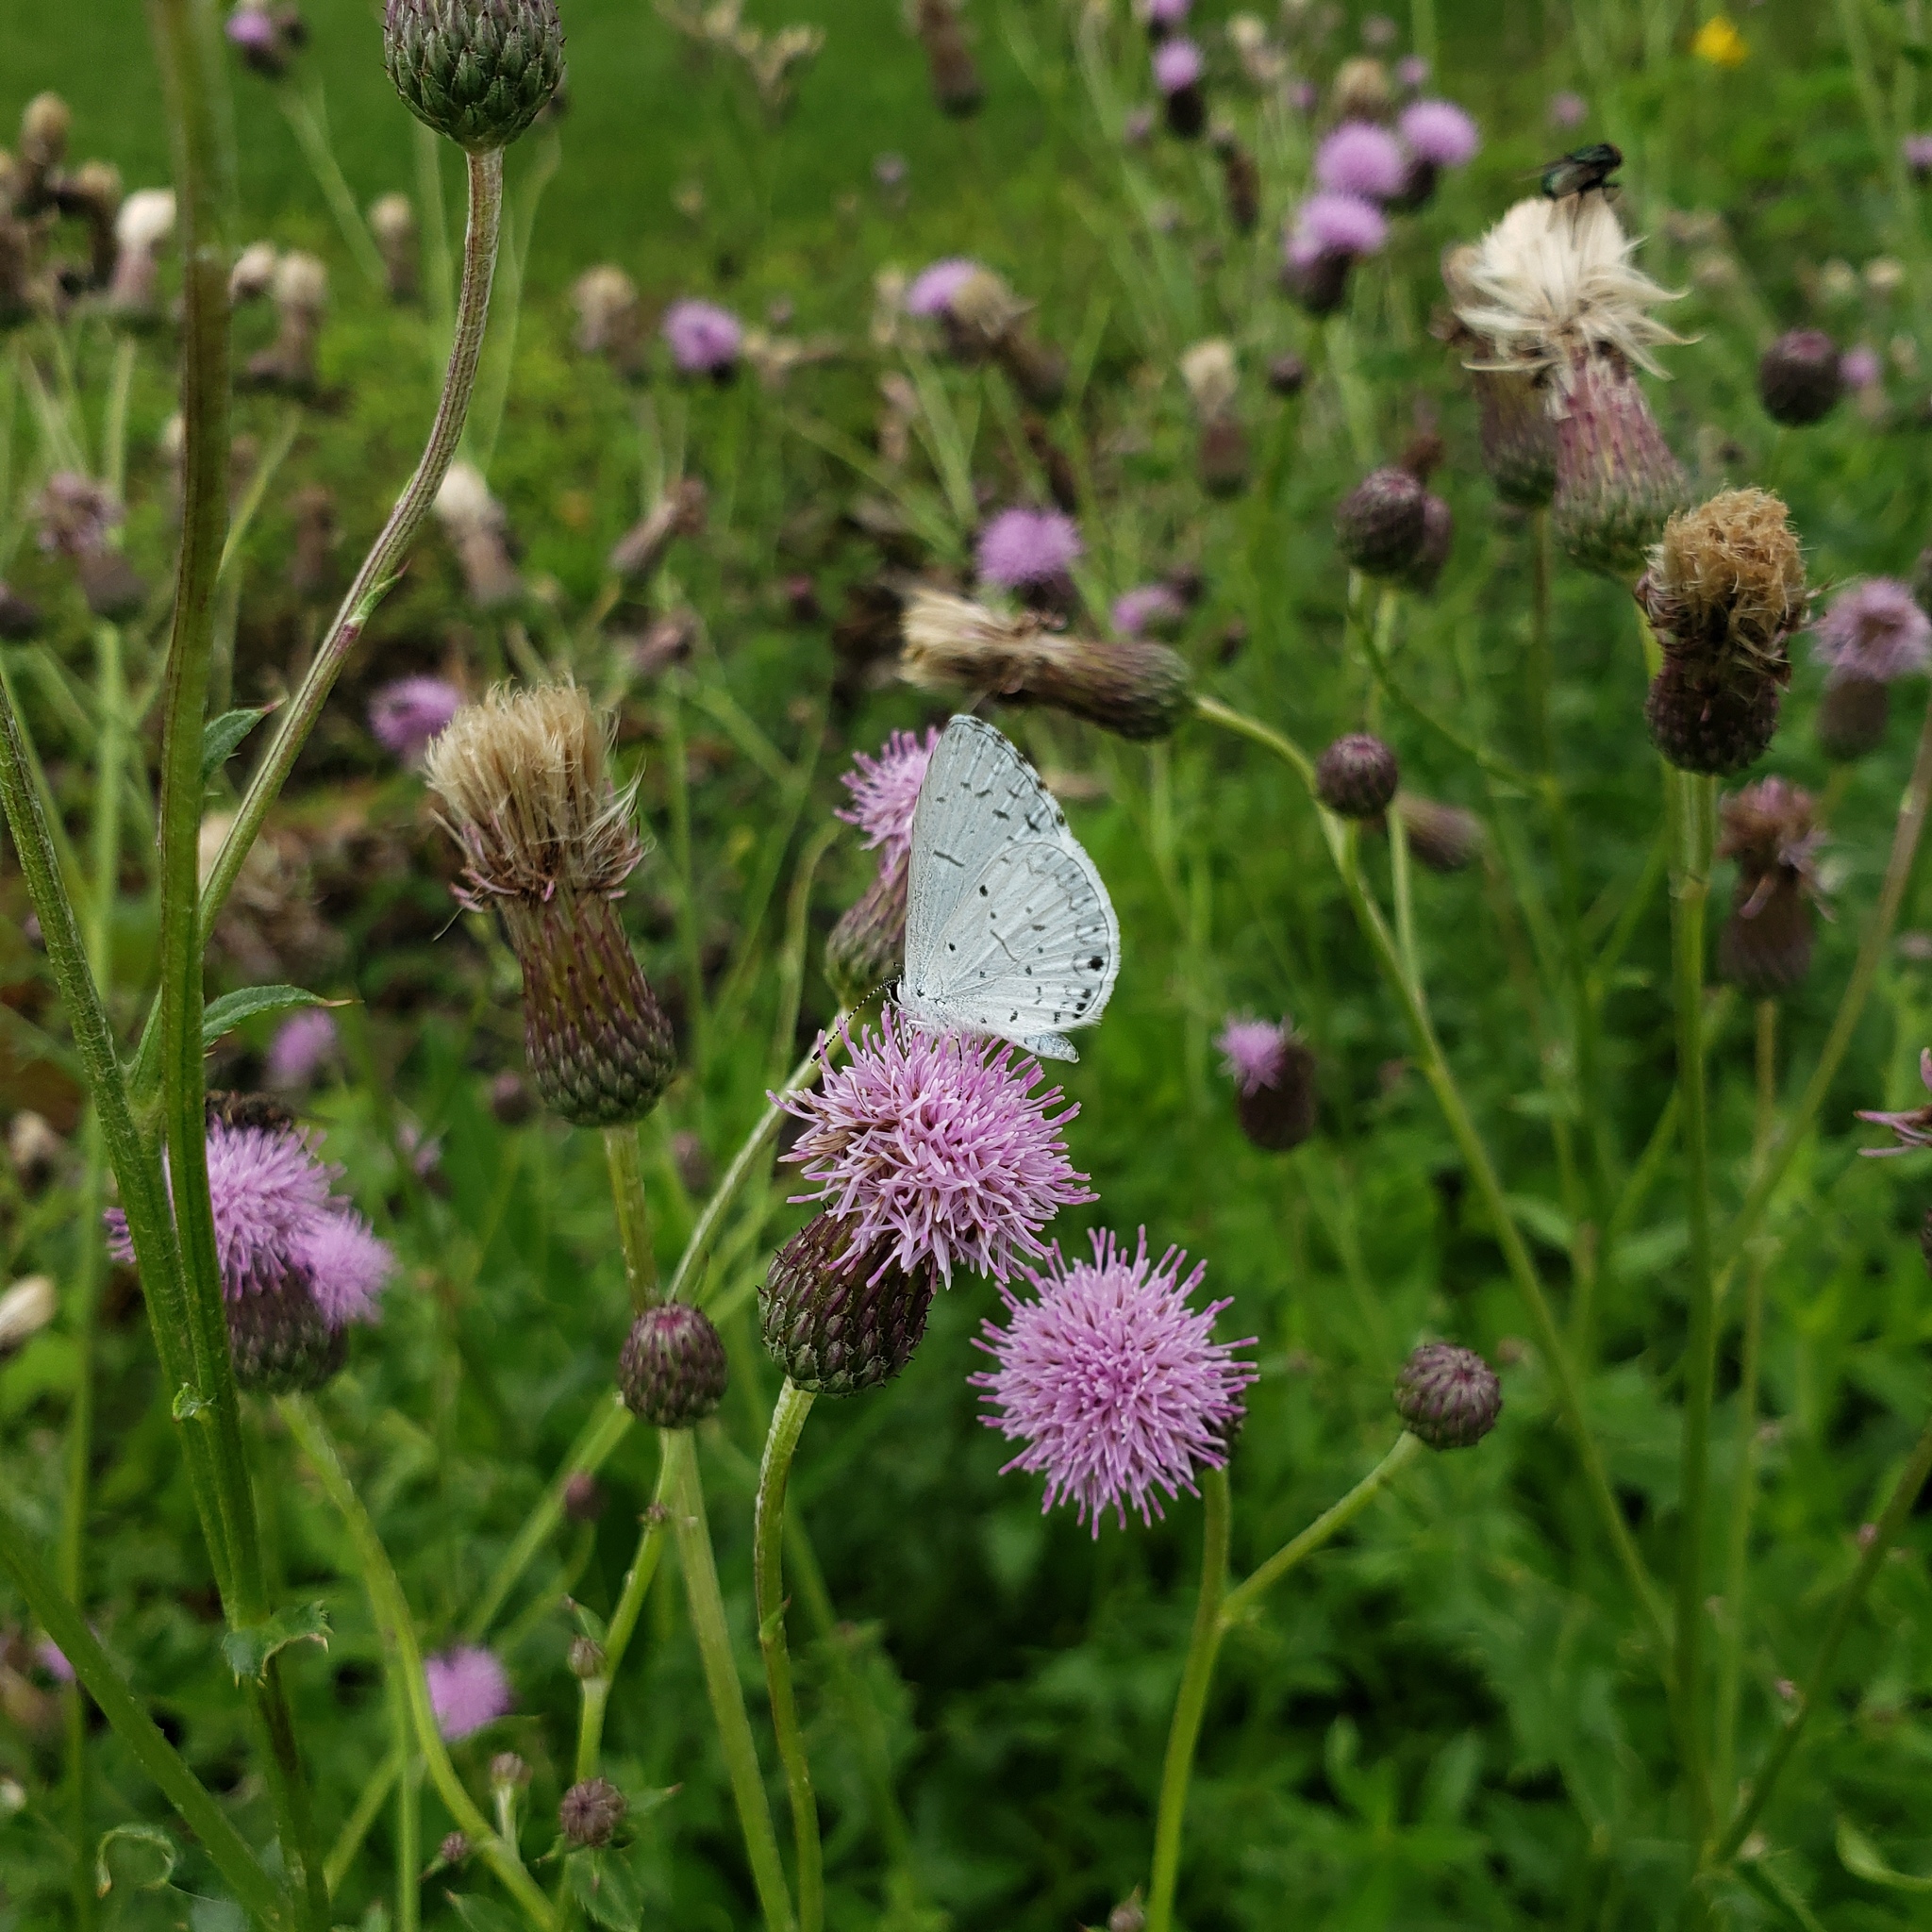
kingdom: Plantae
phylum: Tracheophyta
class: Magnoliopsida
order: Asterales
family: Asteraceae
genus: Cirsium
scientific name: Cirsium arvense
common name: Creeping thistle
